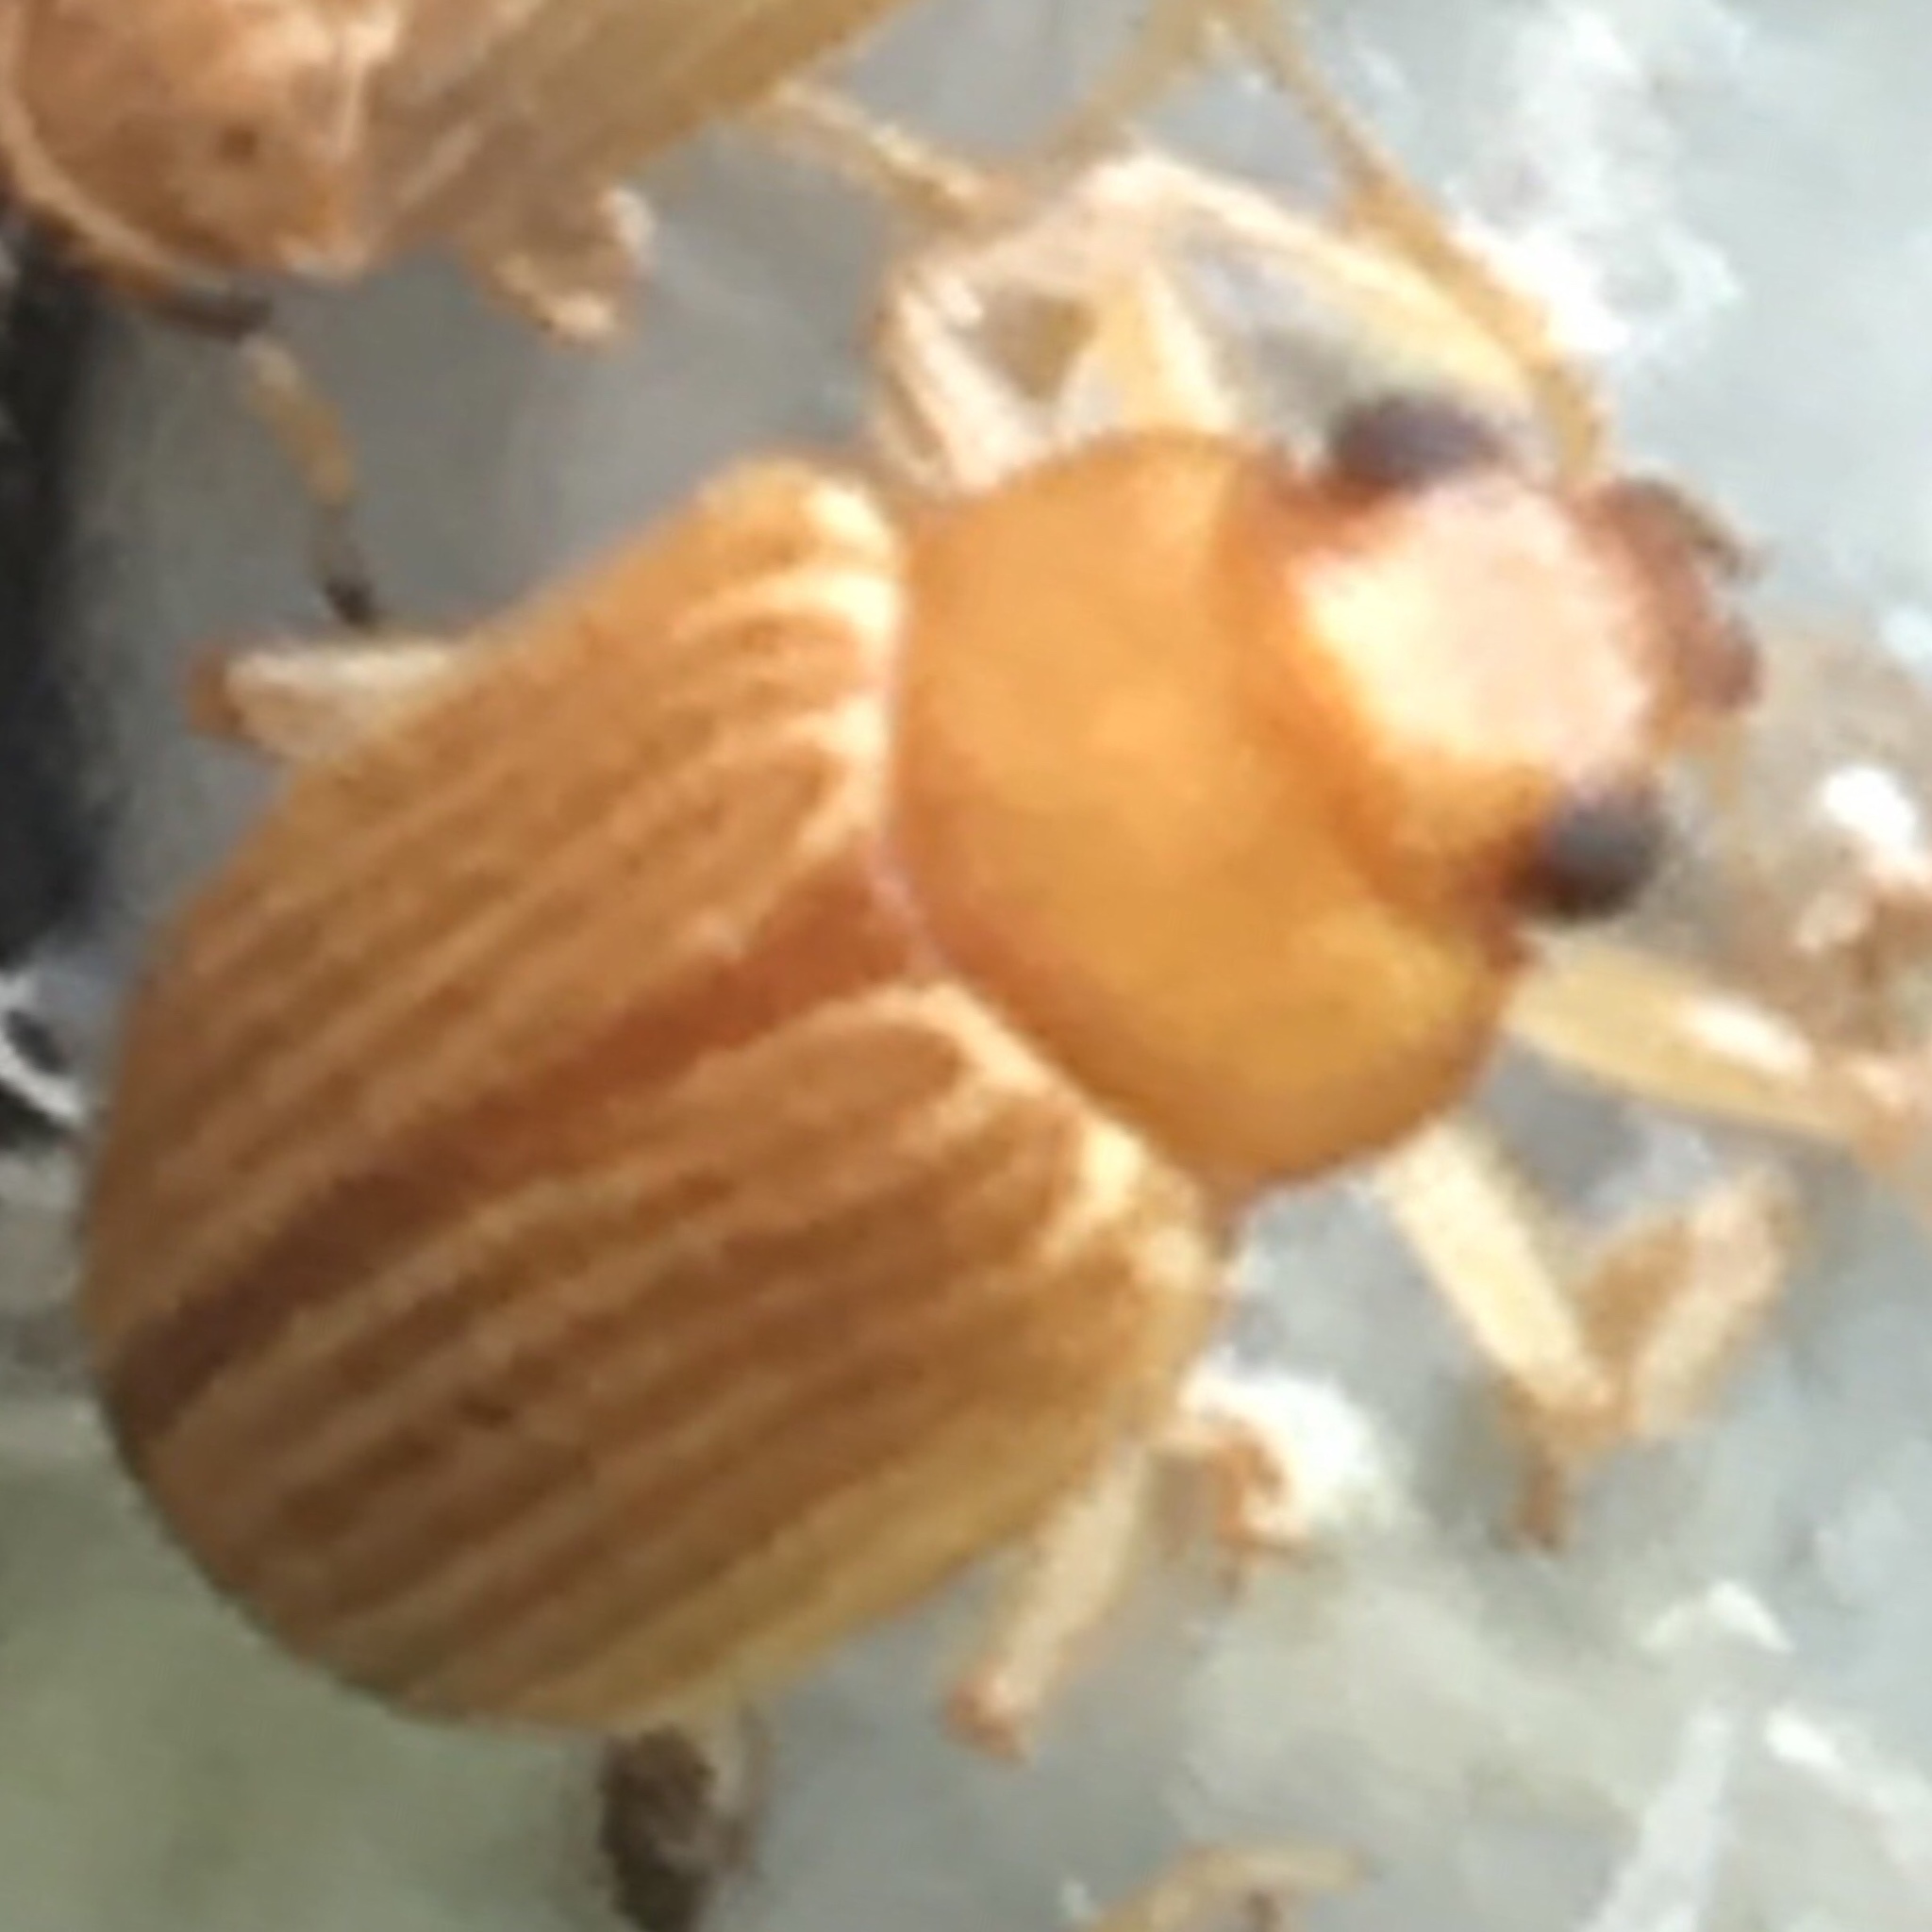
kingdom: Animalia
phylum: Arthropoda
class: Insecta
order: Coleoptera
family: Chrysomelidae
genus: Colaspis
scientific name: Colaspis brunnea
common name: Grape colaspis
